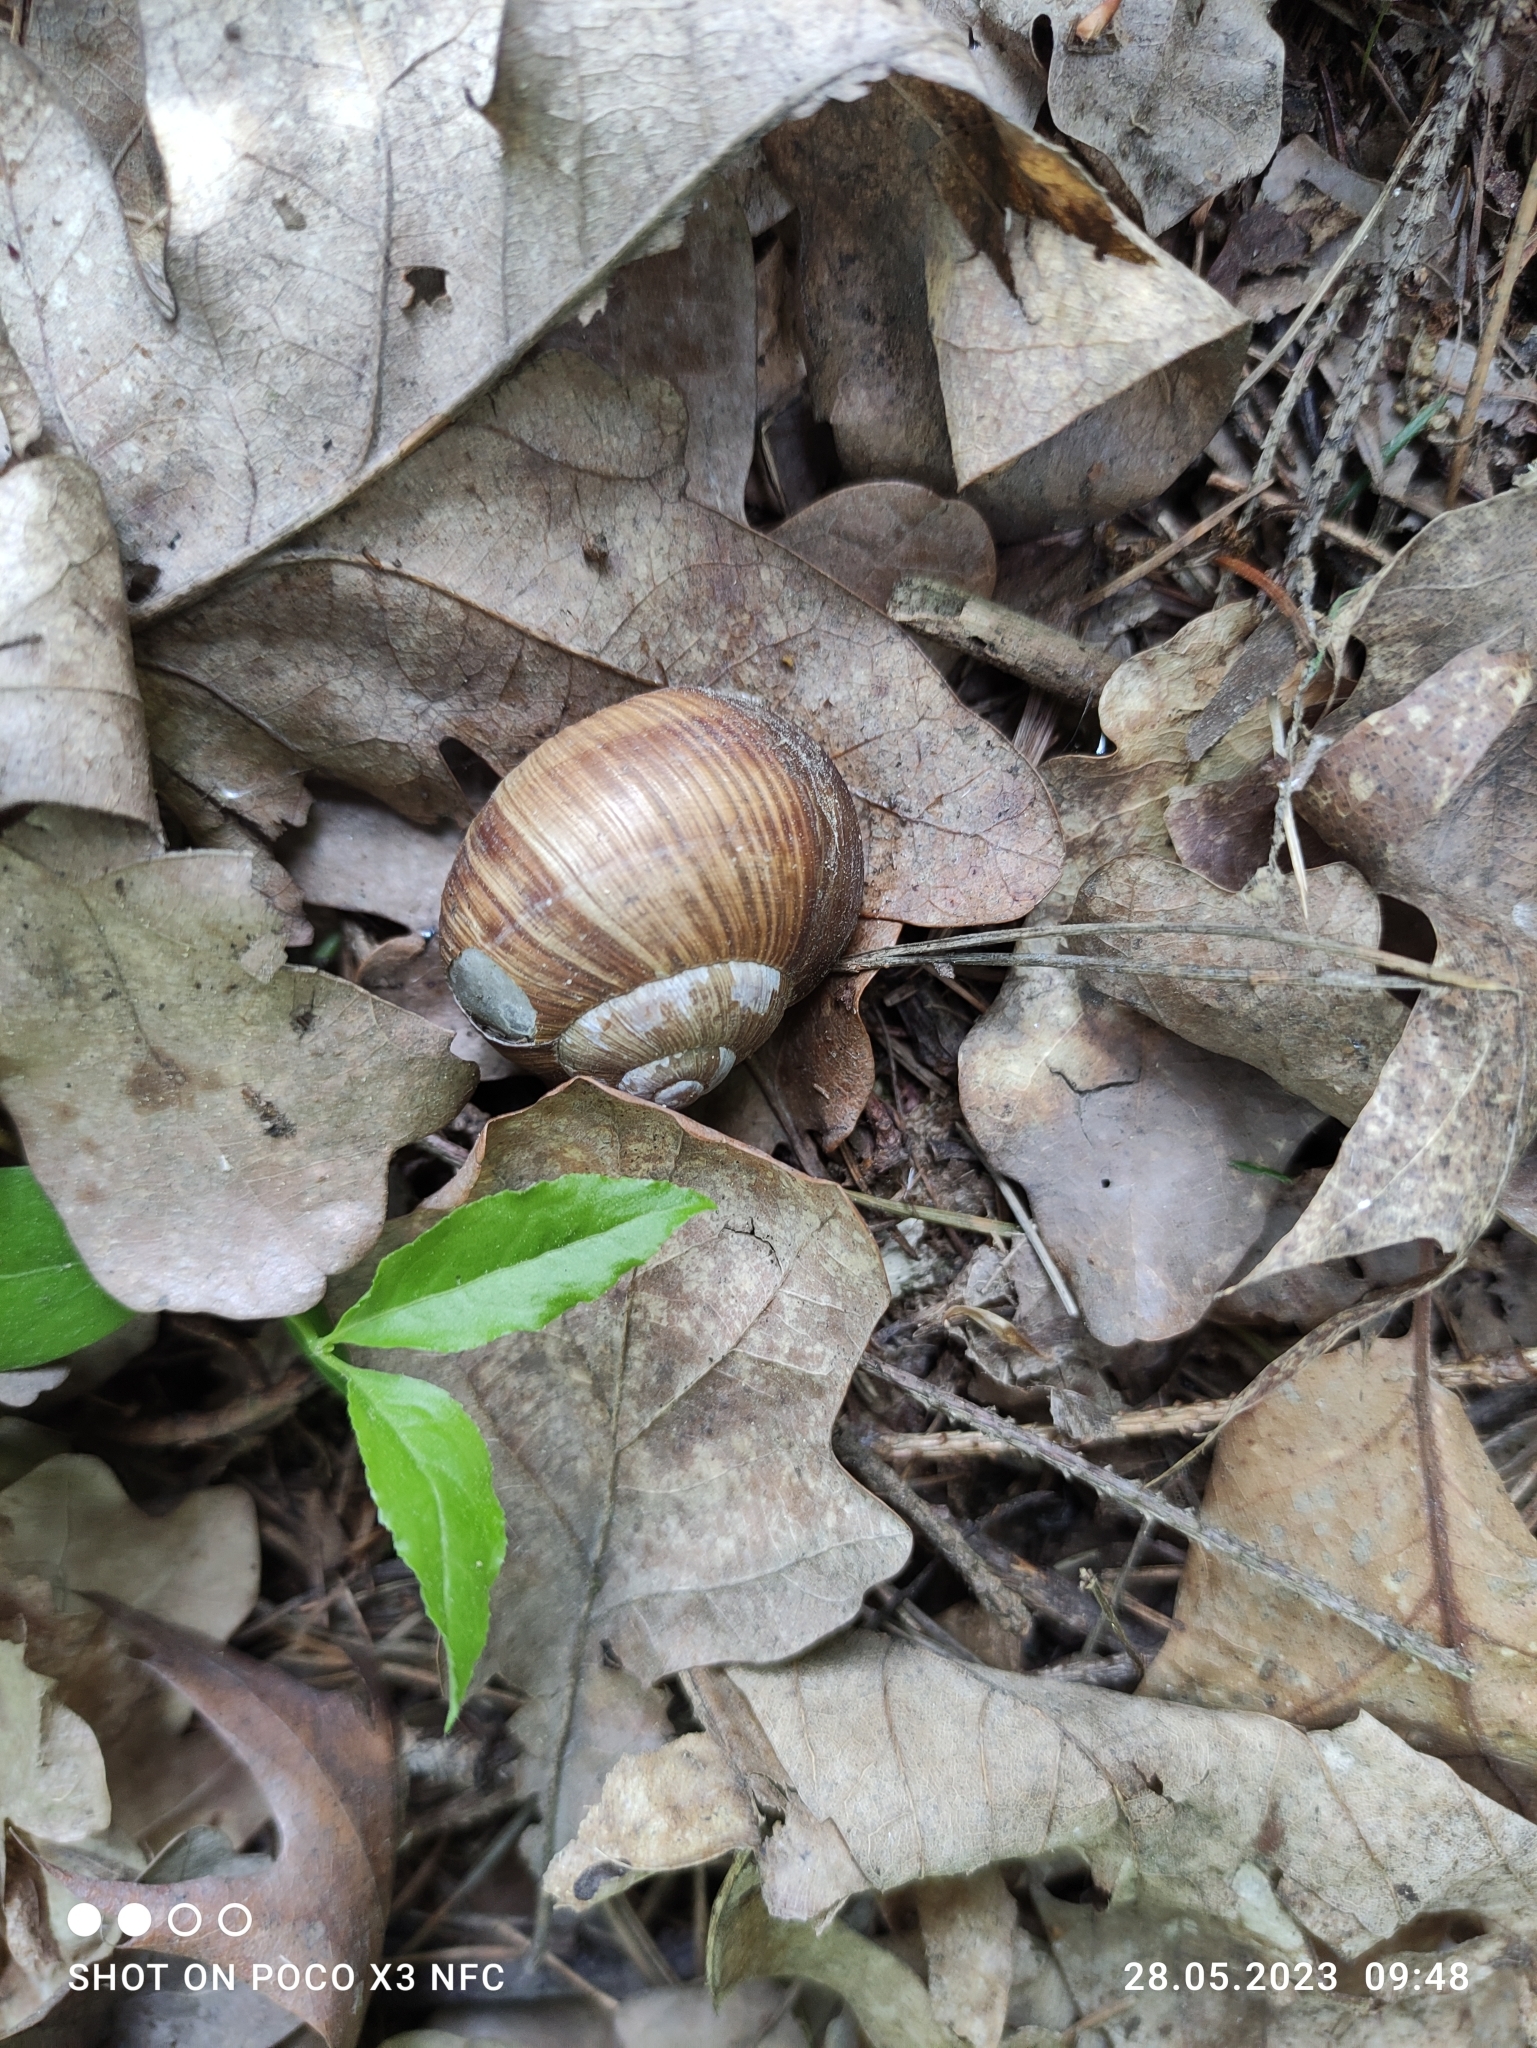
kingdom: Animalia
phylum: Mollusca
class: Gastropoda
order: Stylommatophora
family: Helicidae
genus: Helix
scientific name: Helix pomatia
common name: Roman snail
